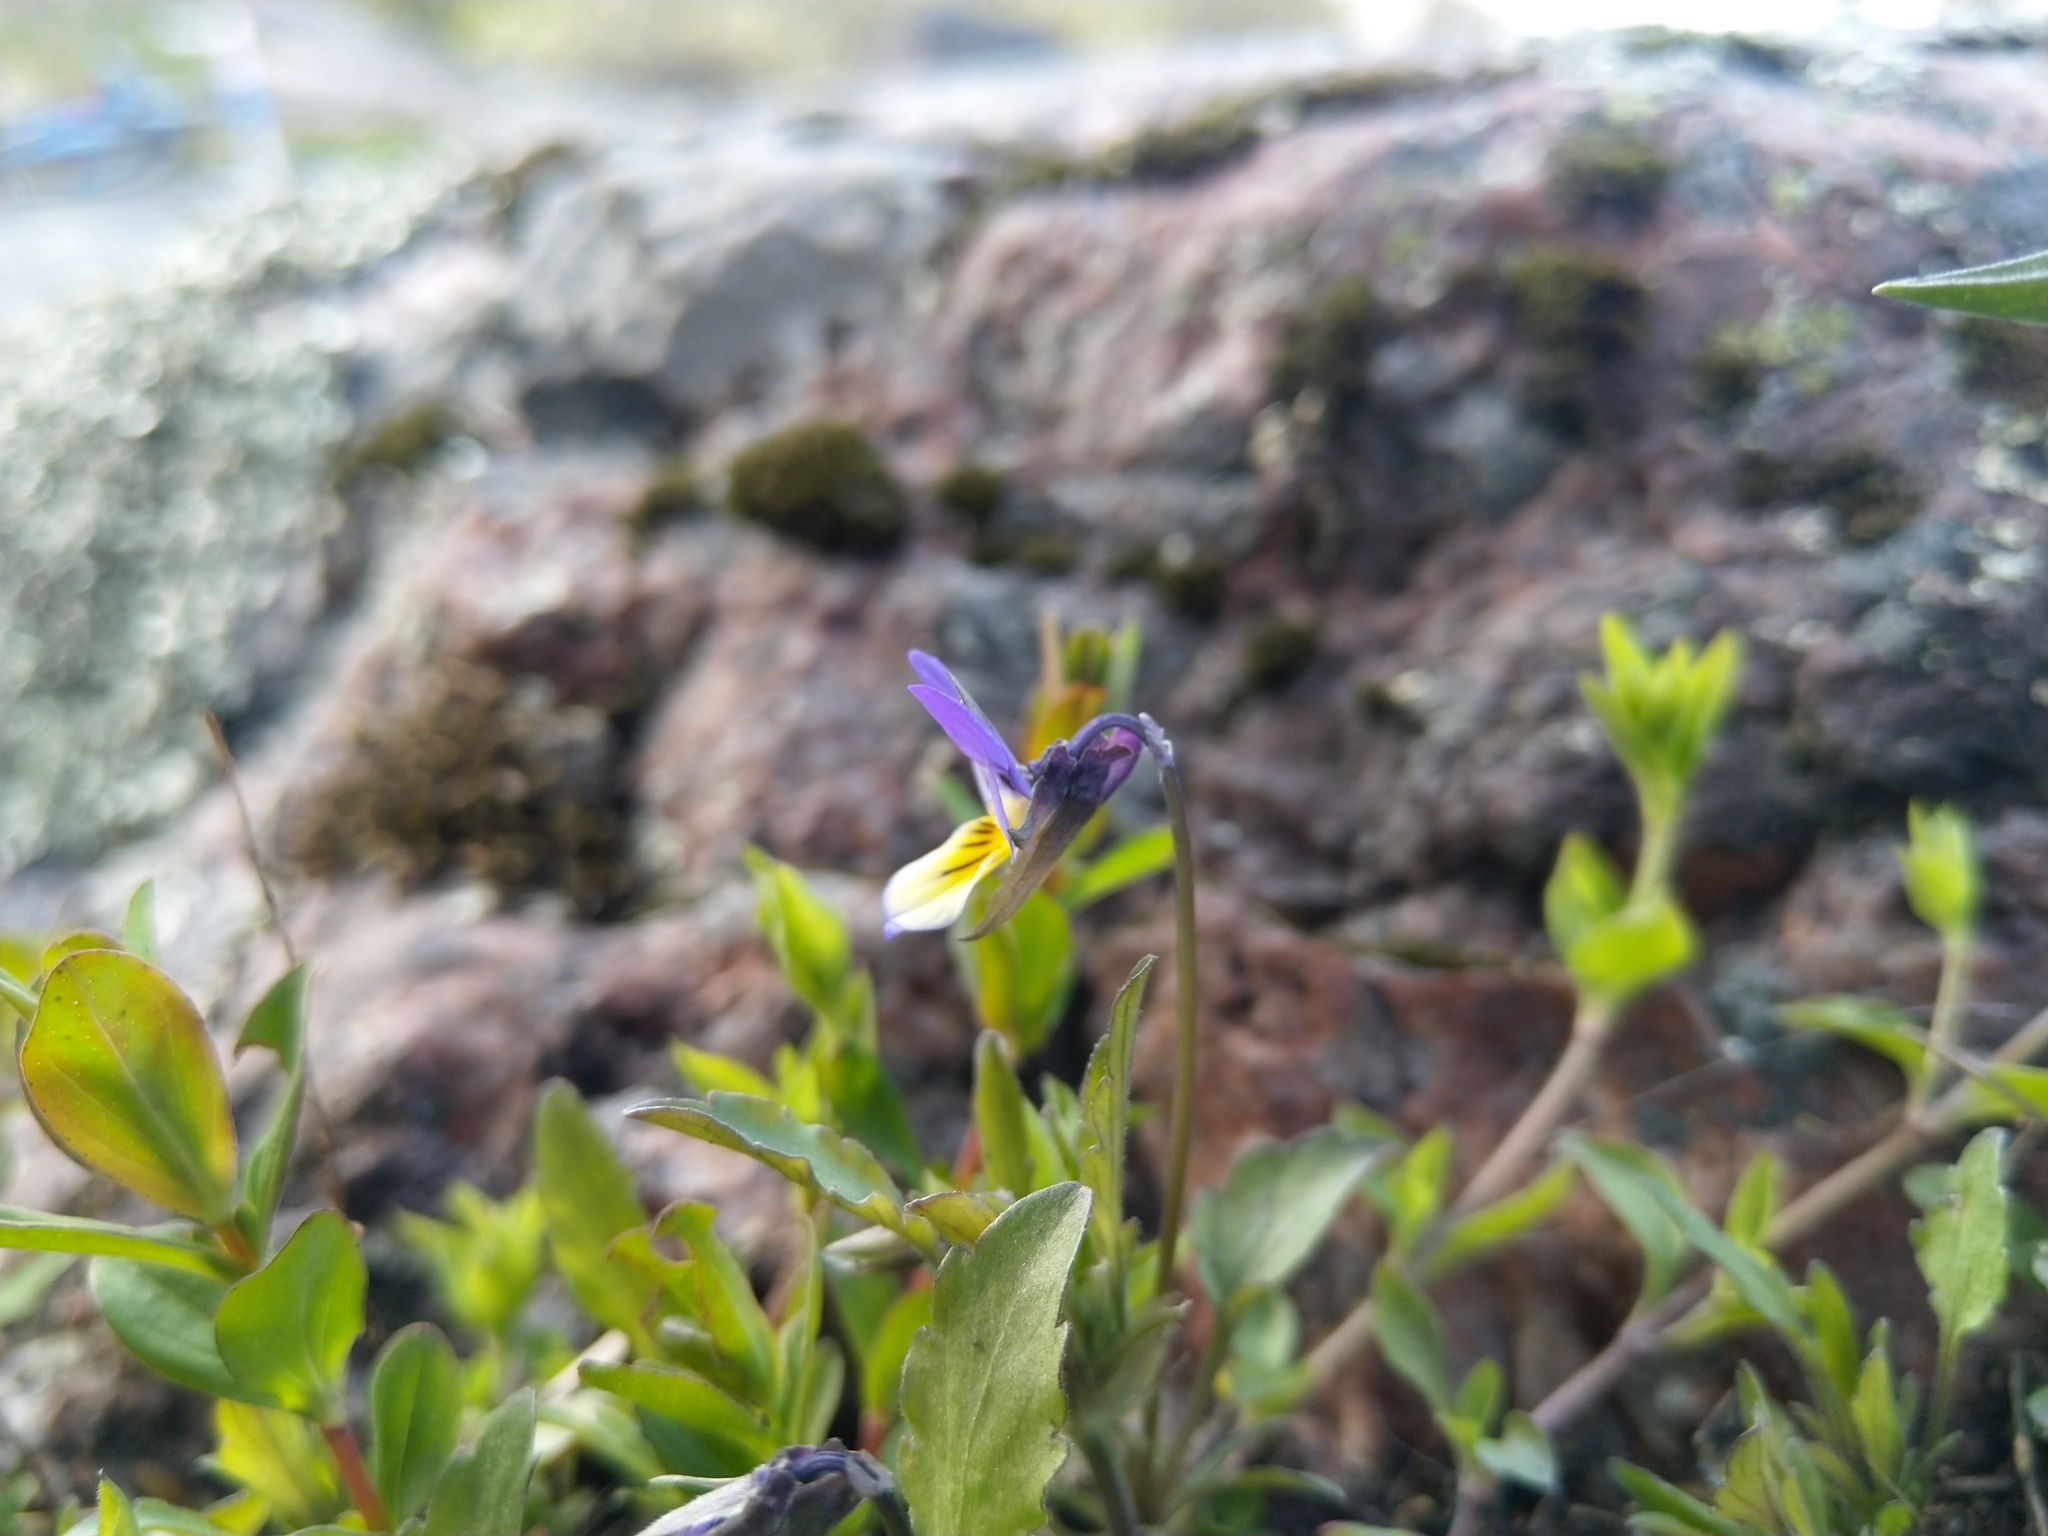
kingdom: Plantae
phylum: Tracheophyta
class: Magnoliopsida
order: Malpighiales
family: Violaceae
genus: Viola
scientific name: Viola tricolor
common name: Pansy
